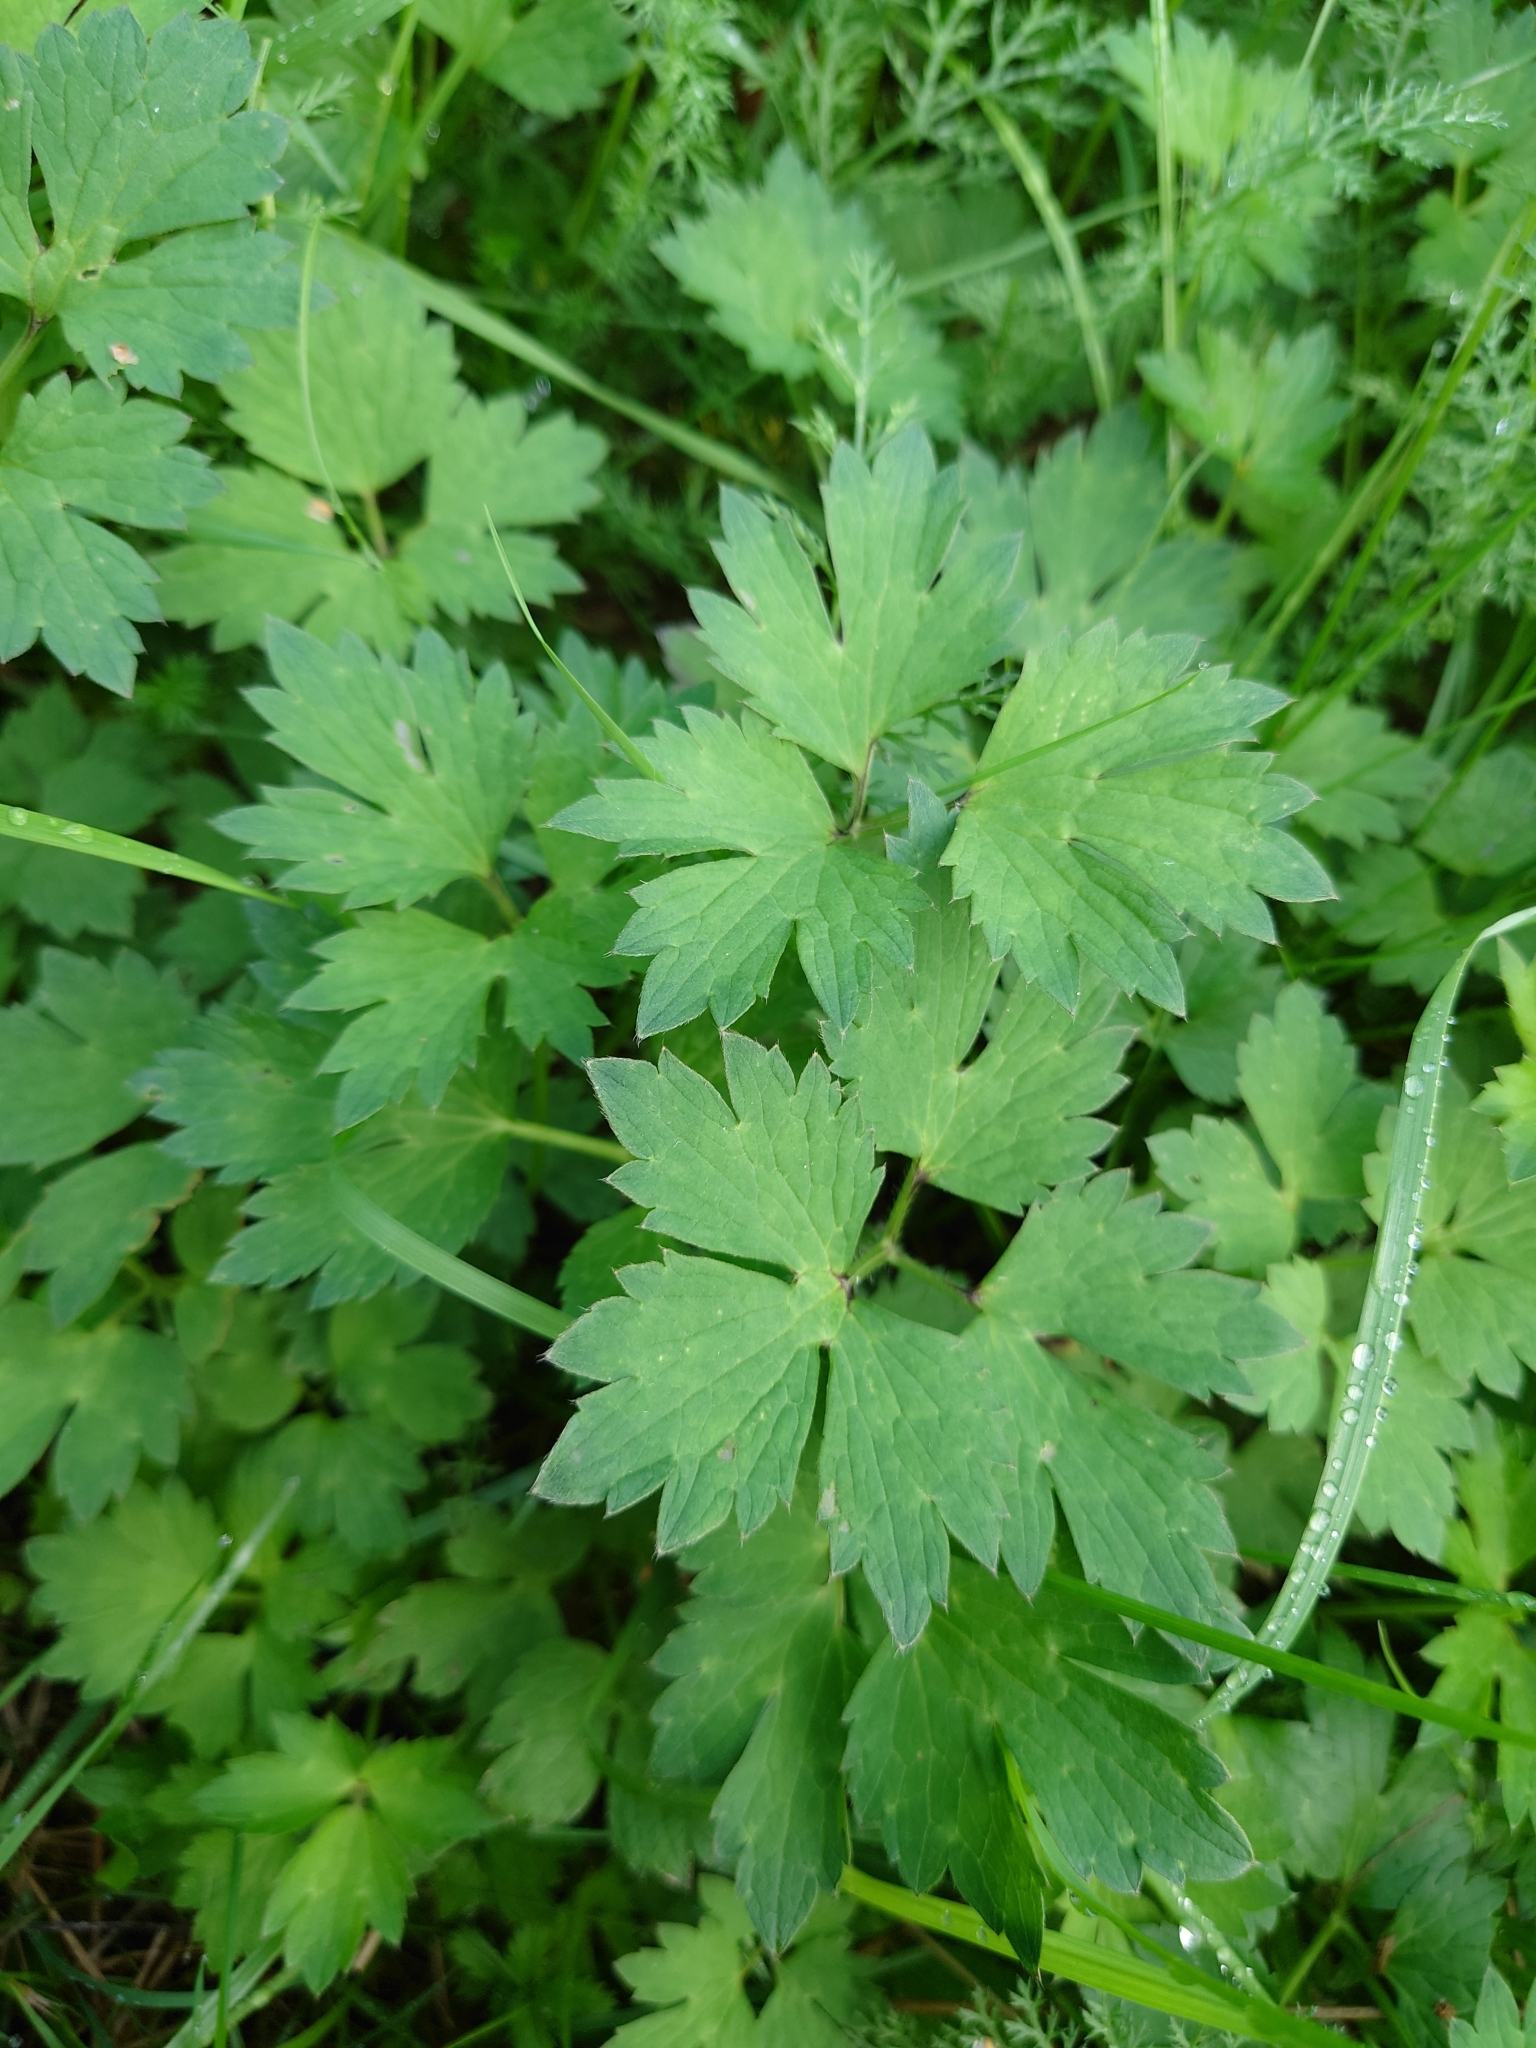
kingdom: Plantae
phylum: Tracheophyta
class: Magnoliopsida
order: Ranunculales
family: Ranunculaceae
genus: Ranunculus
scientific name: Ranunculus repens
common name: Creeping buttercup
